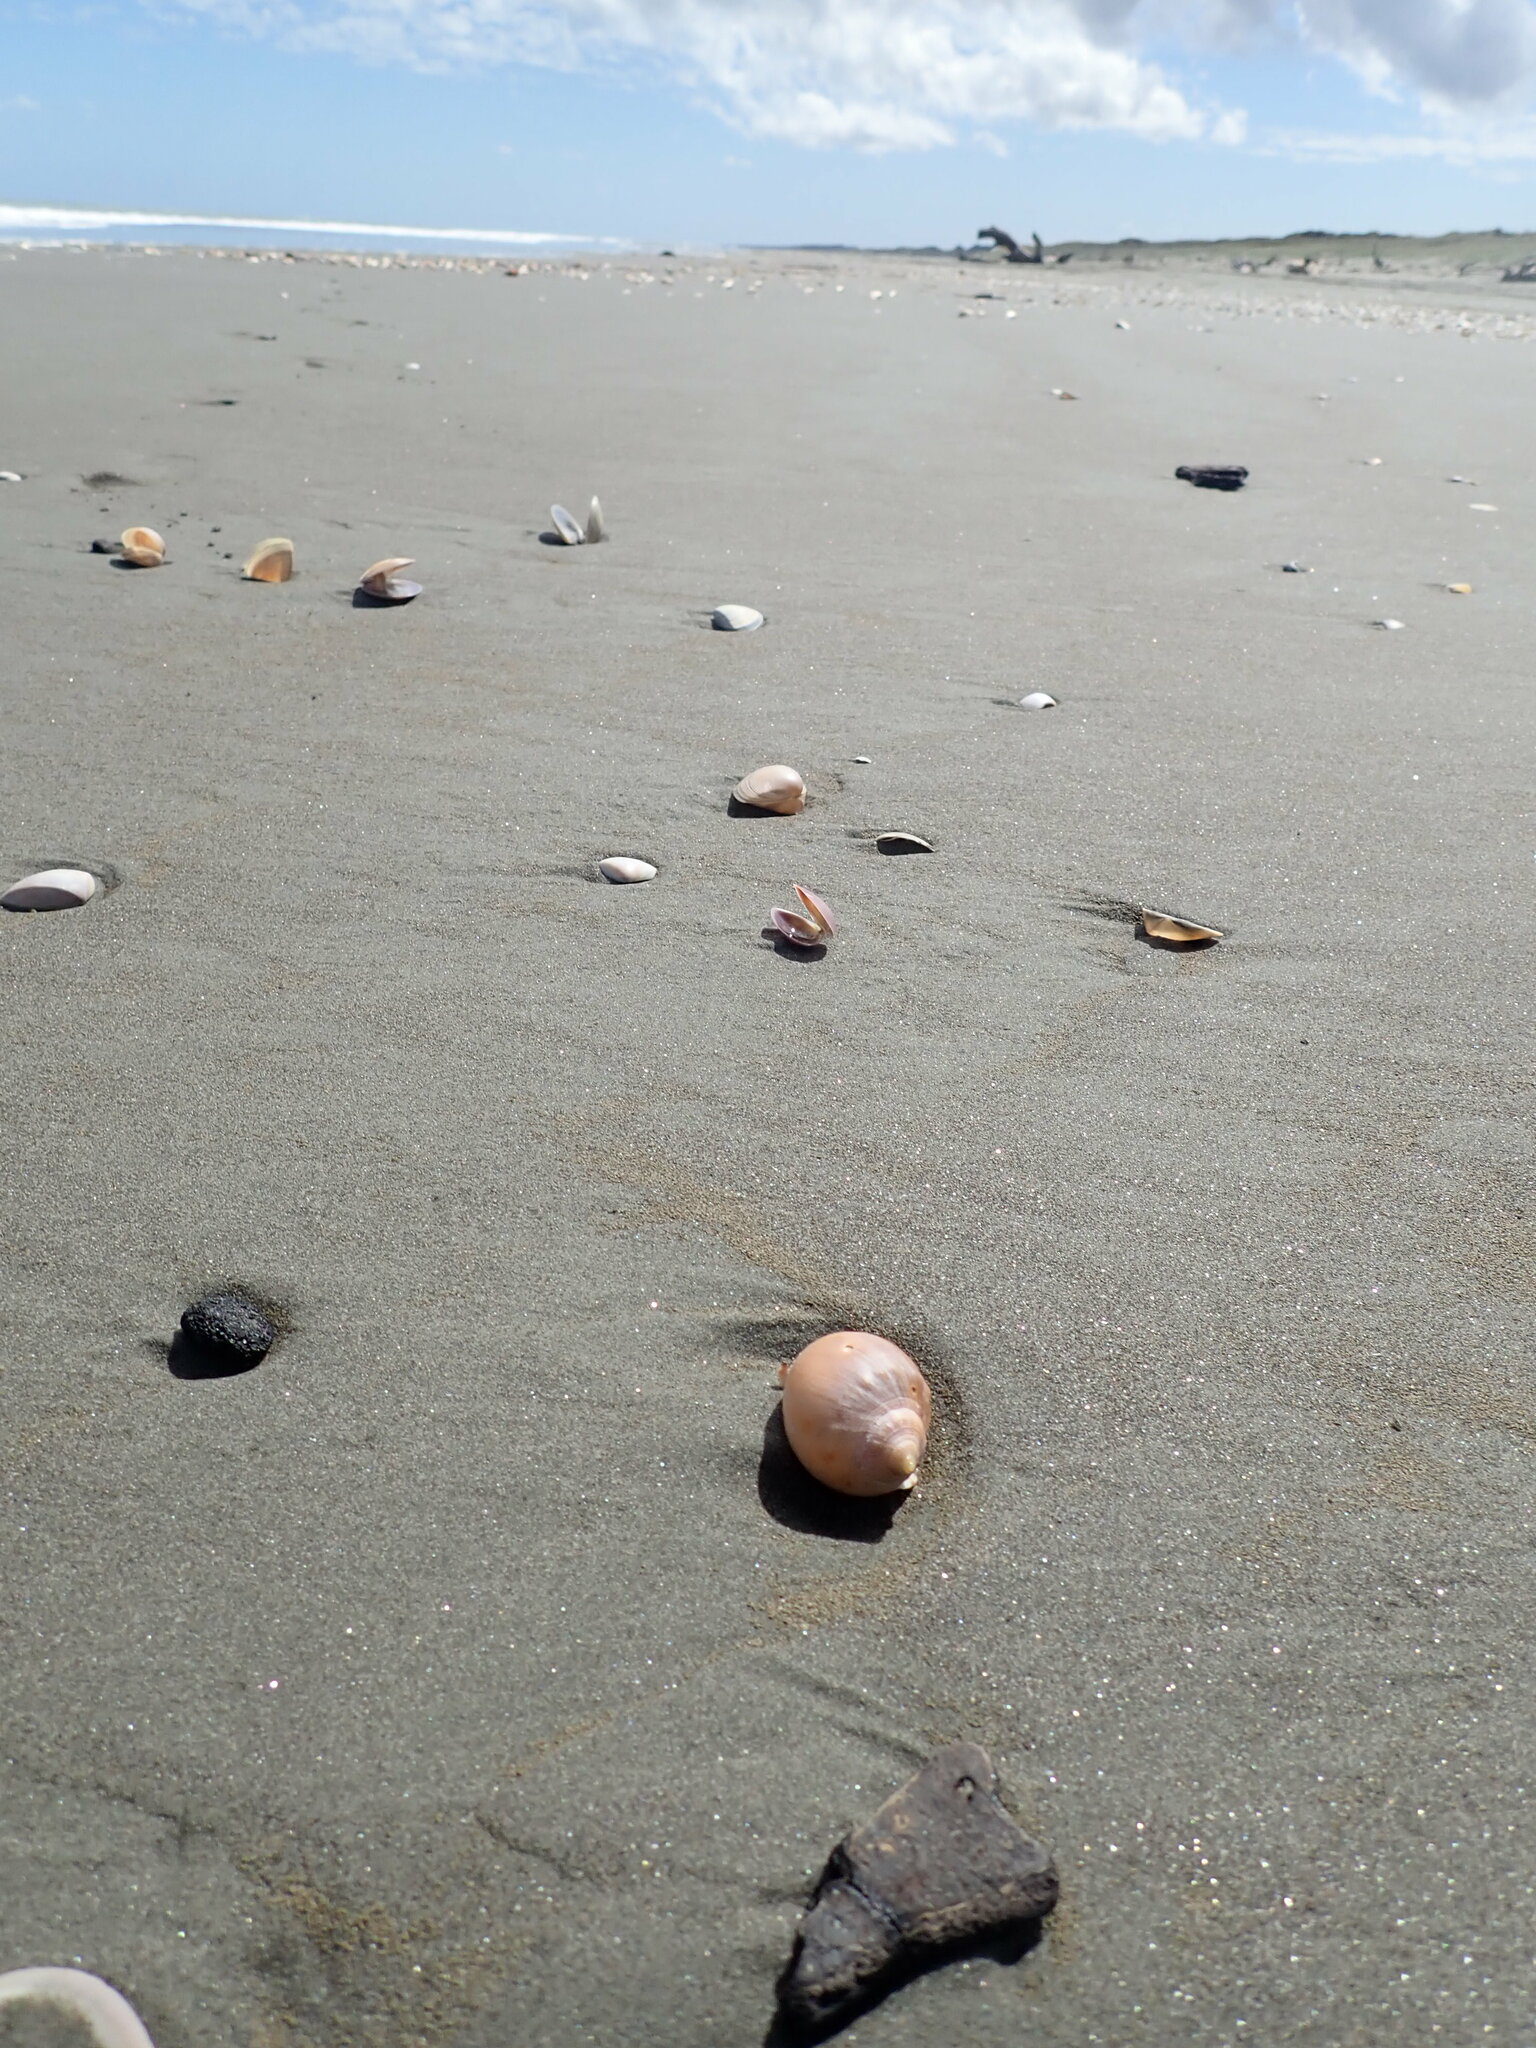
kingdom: Animalia
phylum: Mollusca
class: Gastropoda
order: Littorinimorpha
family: Cassidae
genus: Semicassis
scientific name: Semicassis pyrum
